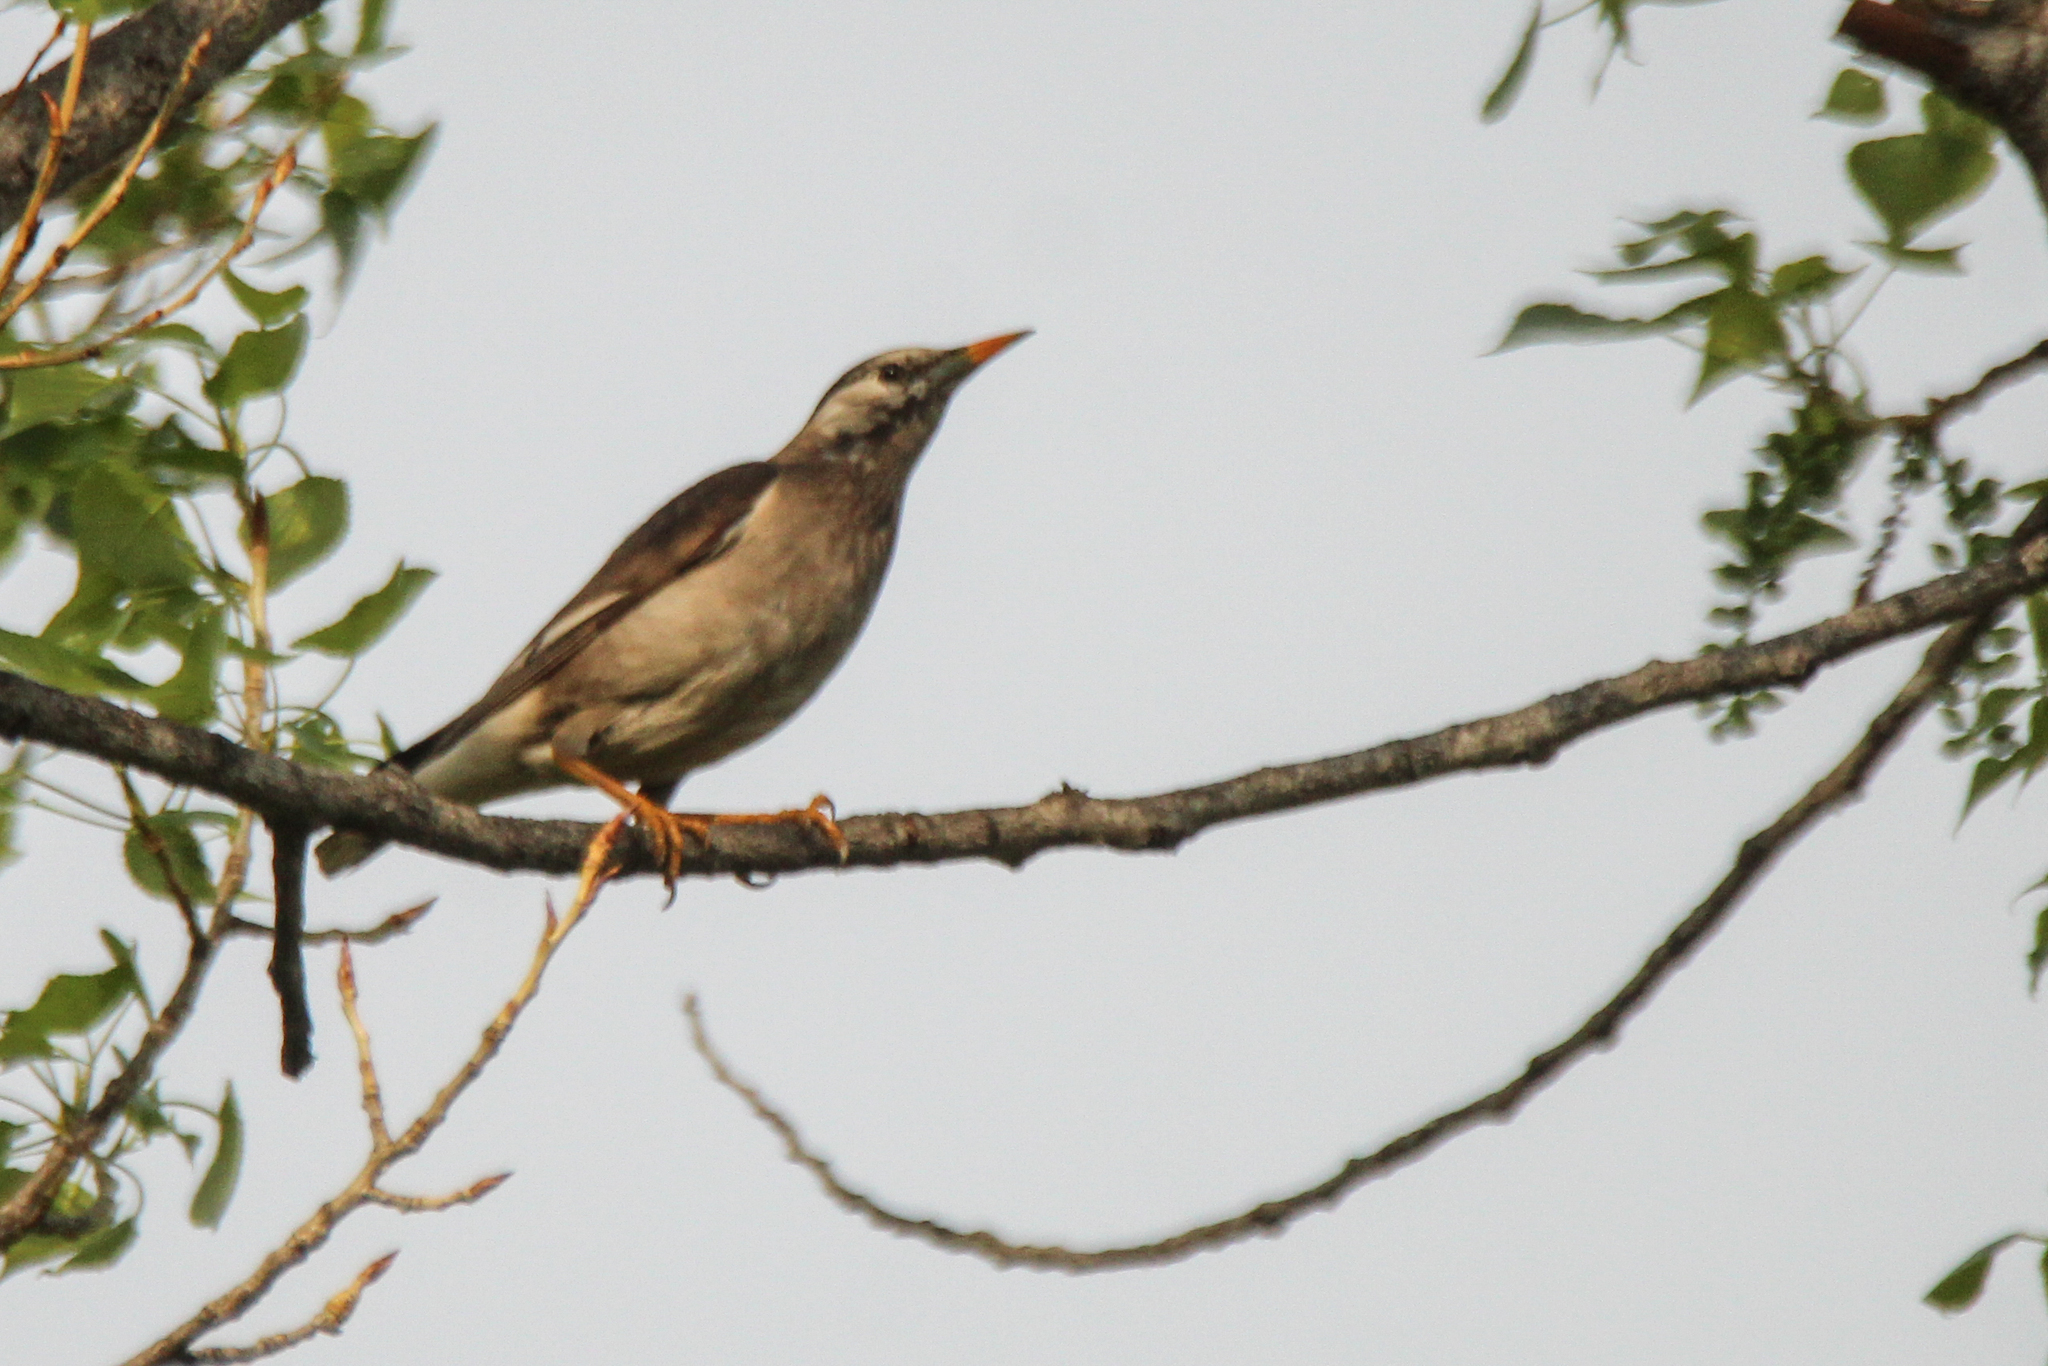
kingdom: Animalia
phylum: Chordata
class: Aves
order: Passeriformes
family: Sturnidae
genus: Spodiopsar
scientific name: Spodiopsar cineraceus
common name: White-cheeked starling
